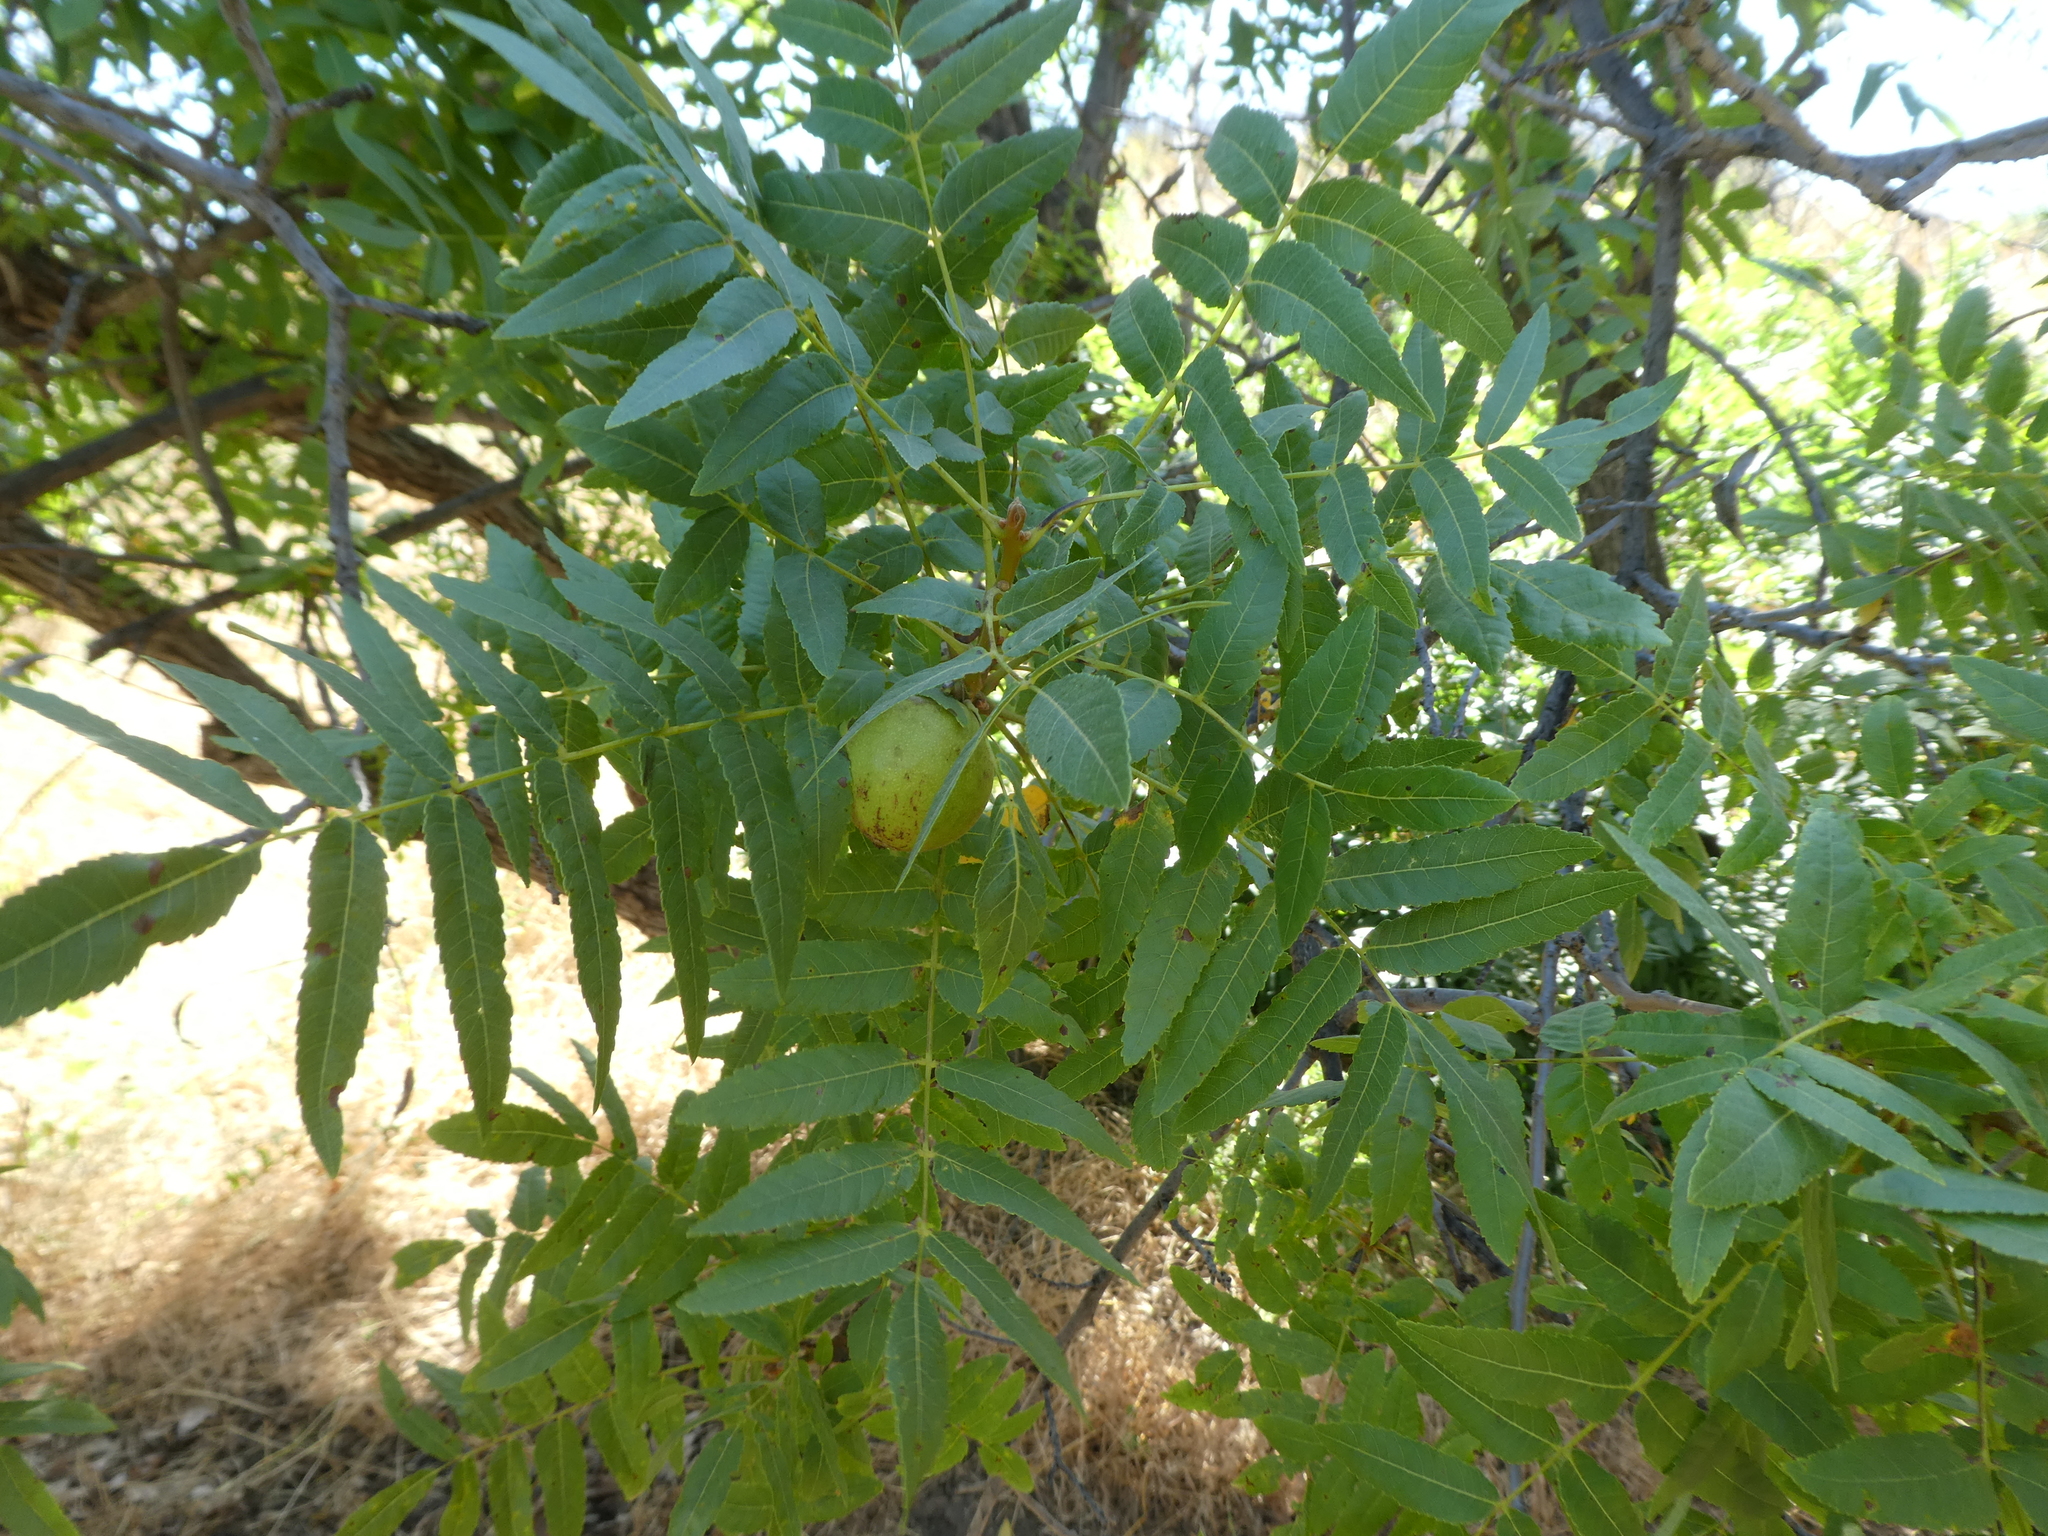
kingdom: Plantae
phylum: Tracheophyta
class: Magnoliopsida
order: Fagales
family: Juglandaceae
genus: Juglans
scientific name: Juglans californica
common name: Southern california black walnut
